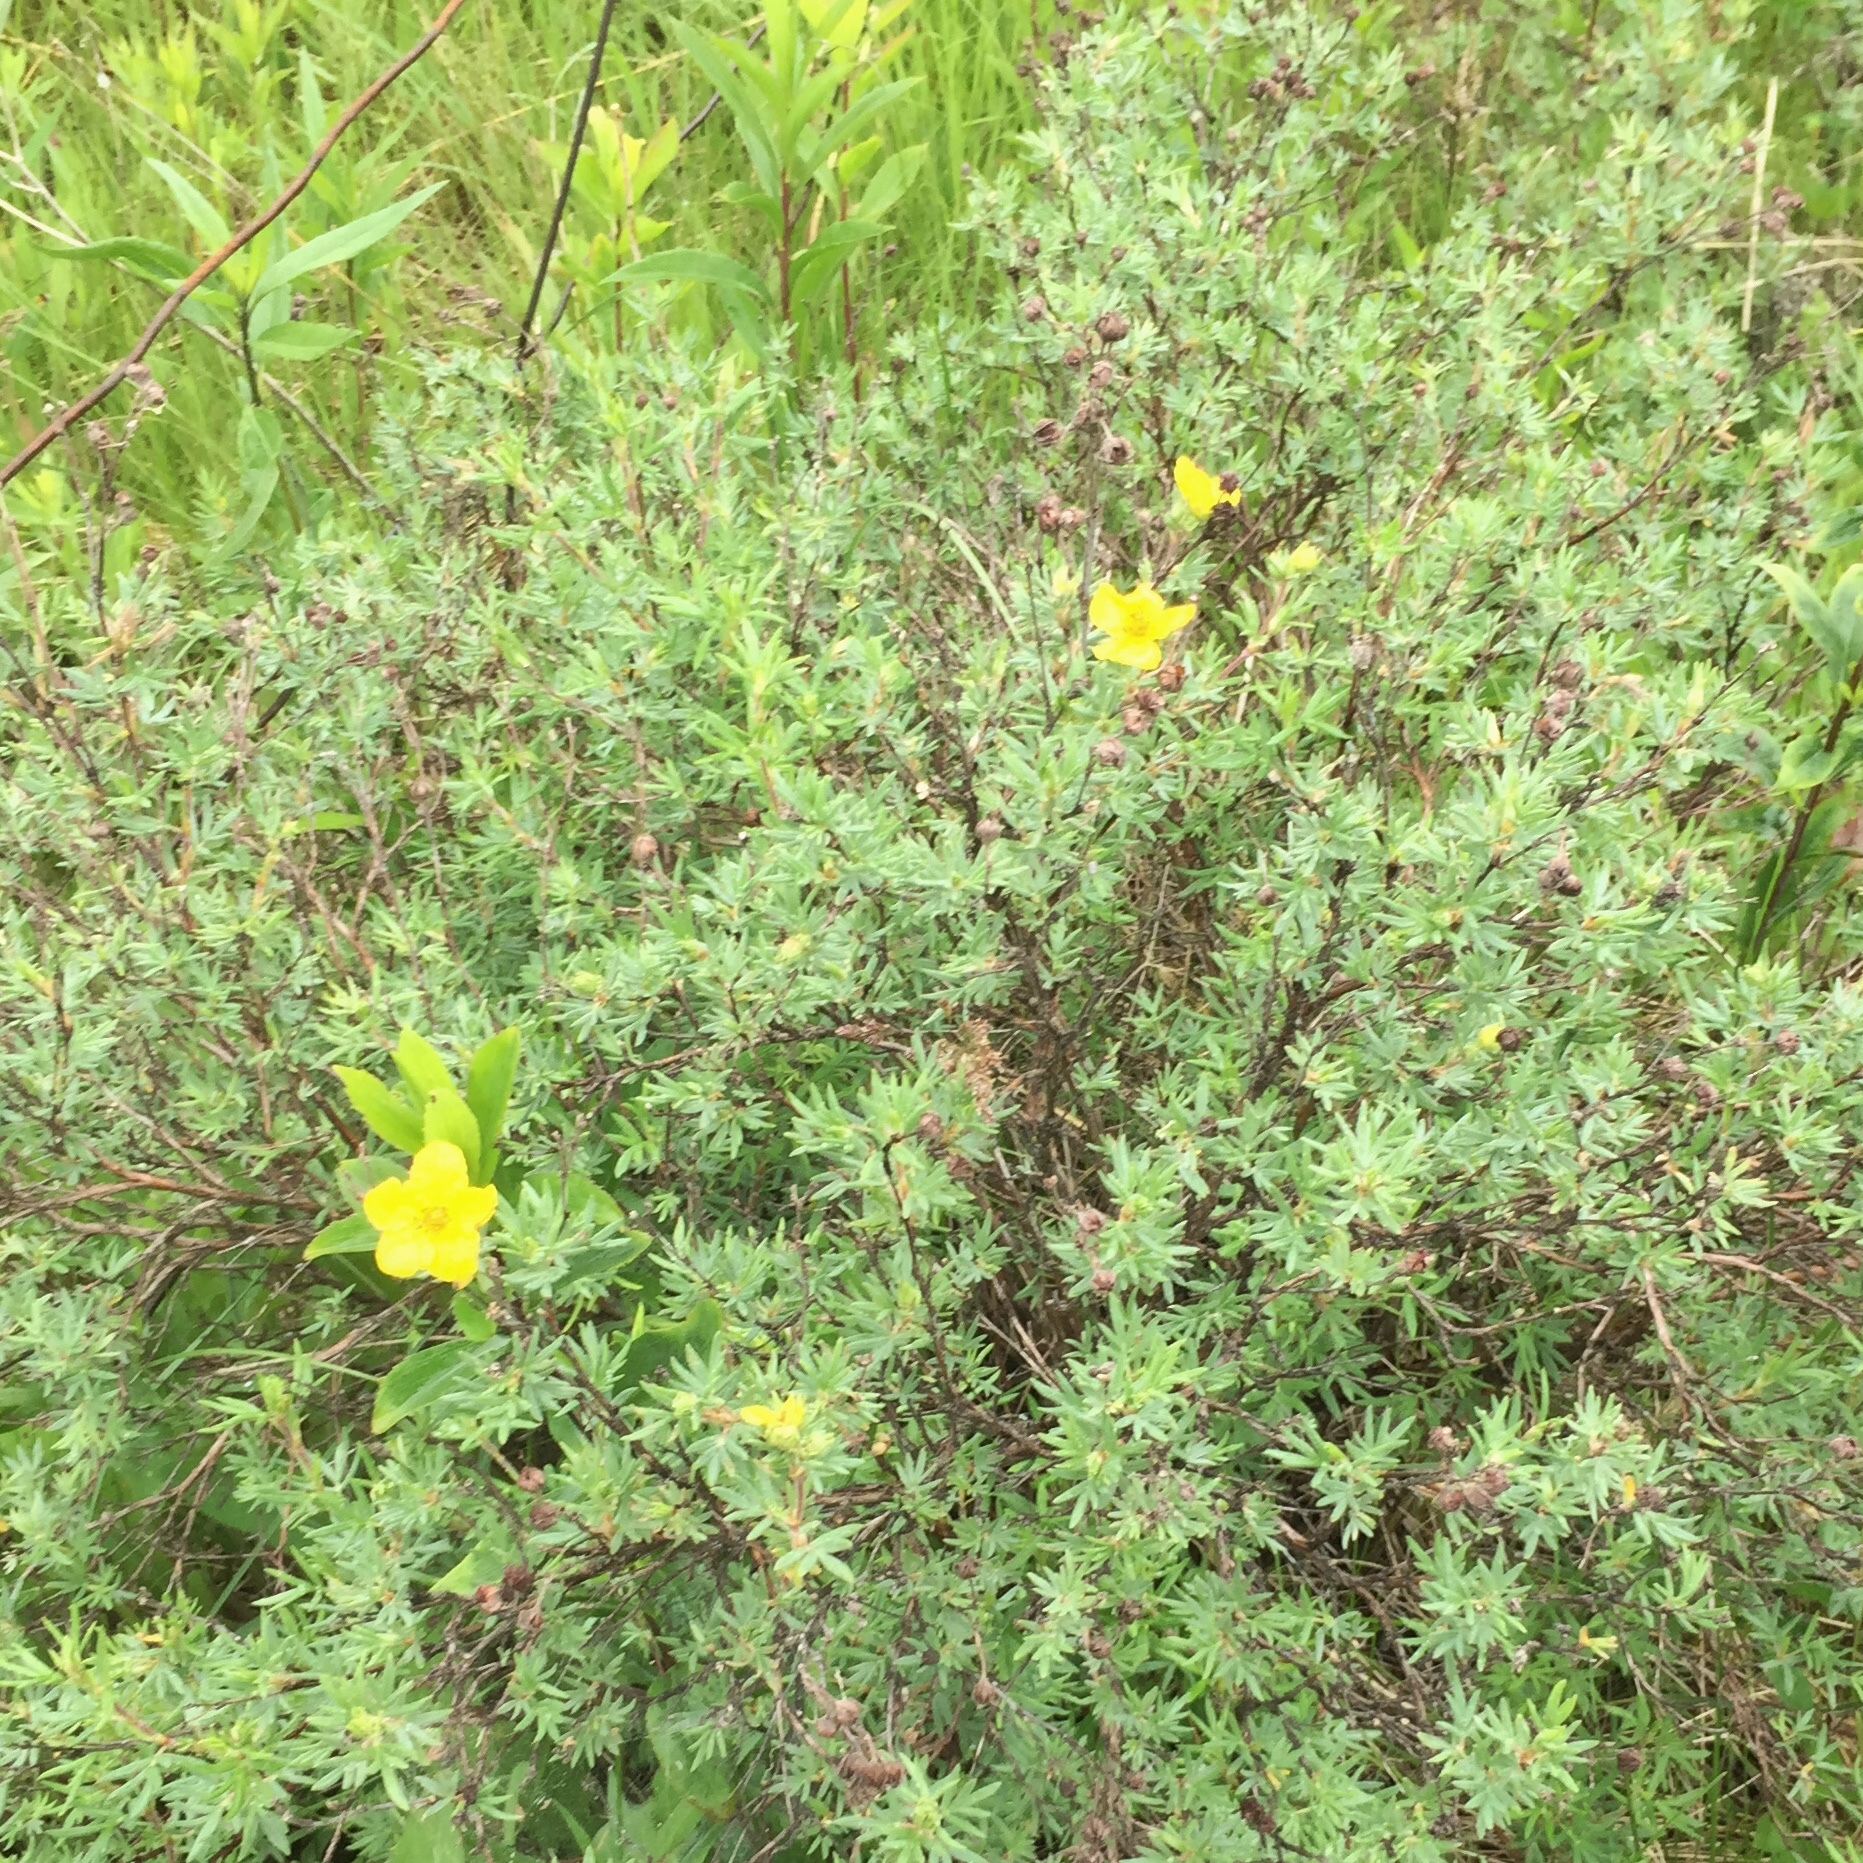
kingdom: Plantae
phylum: Tracheophyta
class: Magnoliopsida
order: Rosales
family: Rosaceae
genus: Dasiphora
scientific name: Dasiphora fruticosa
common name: Shrubby cinquefoil
